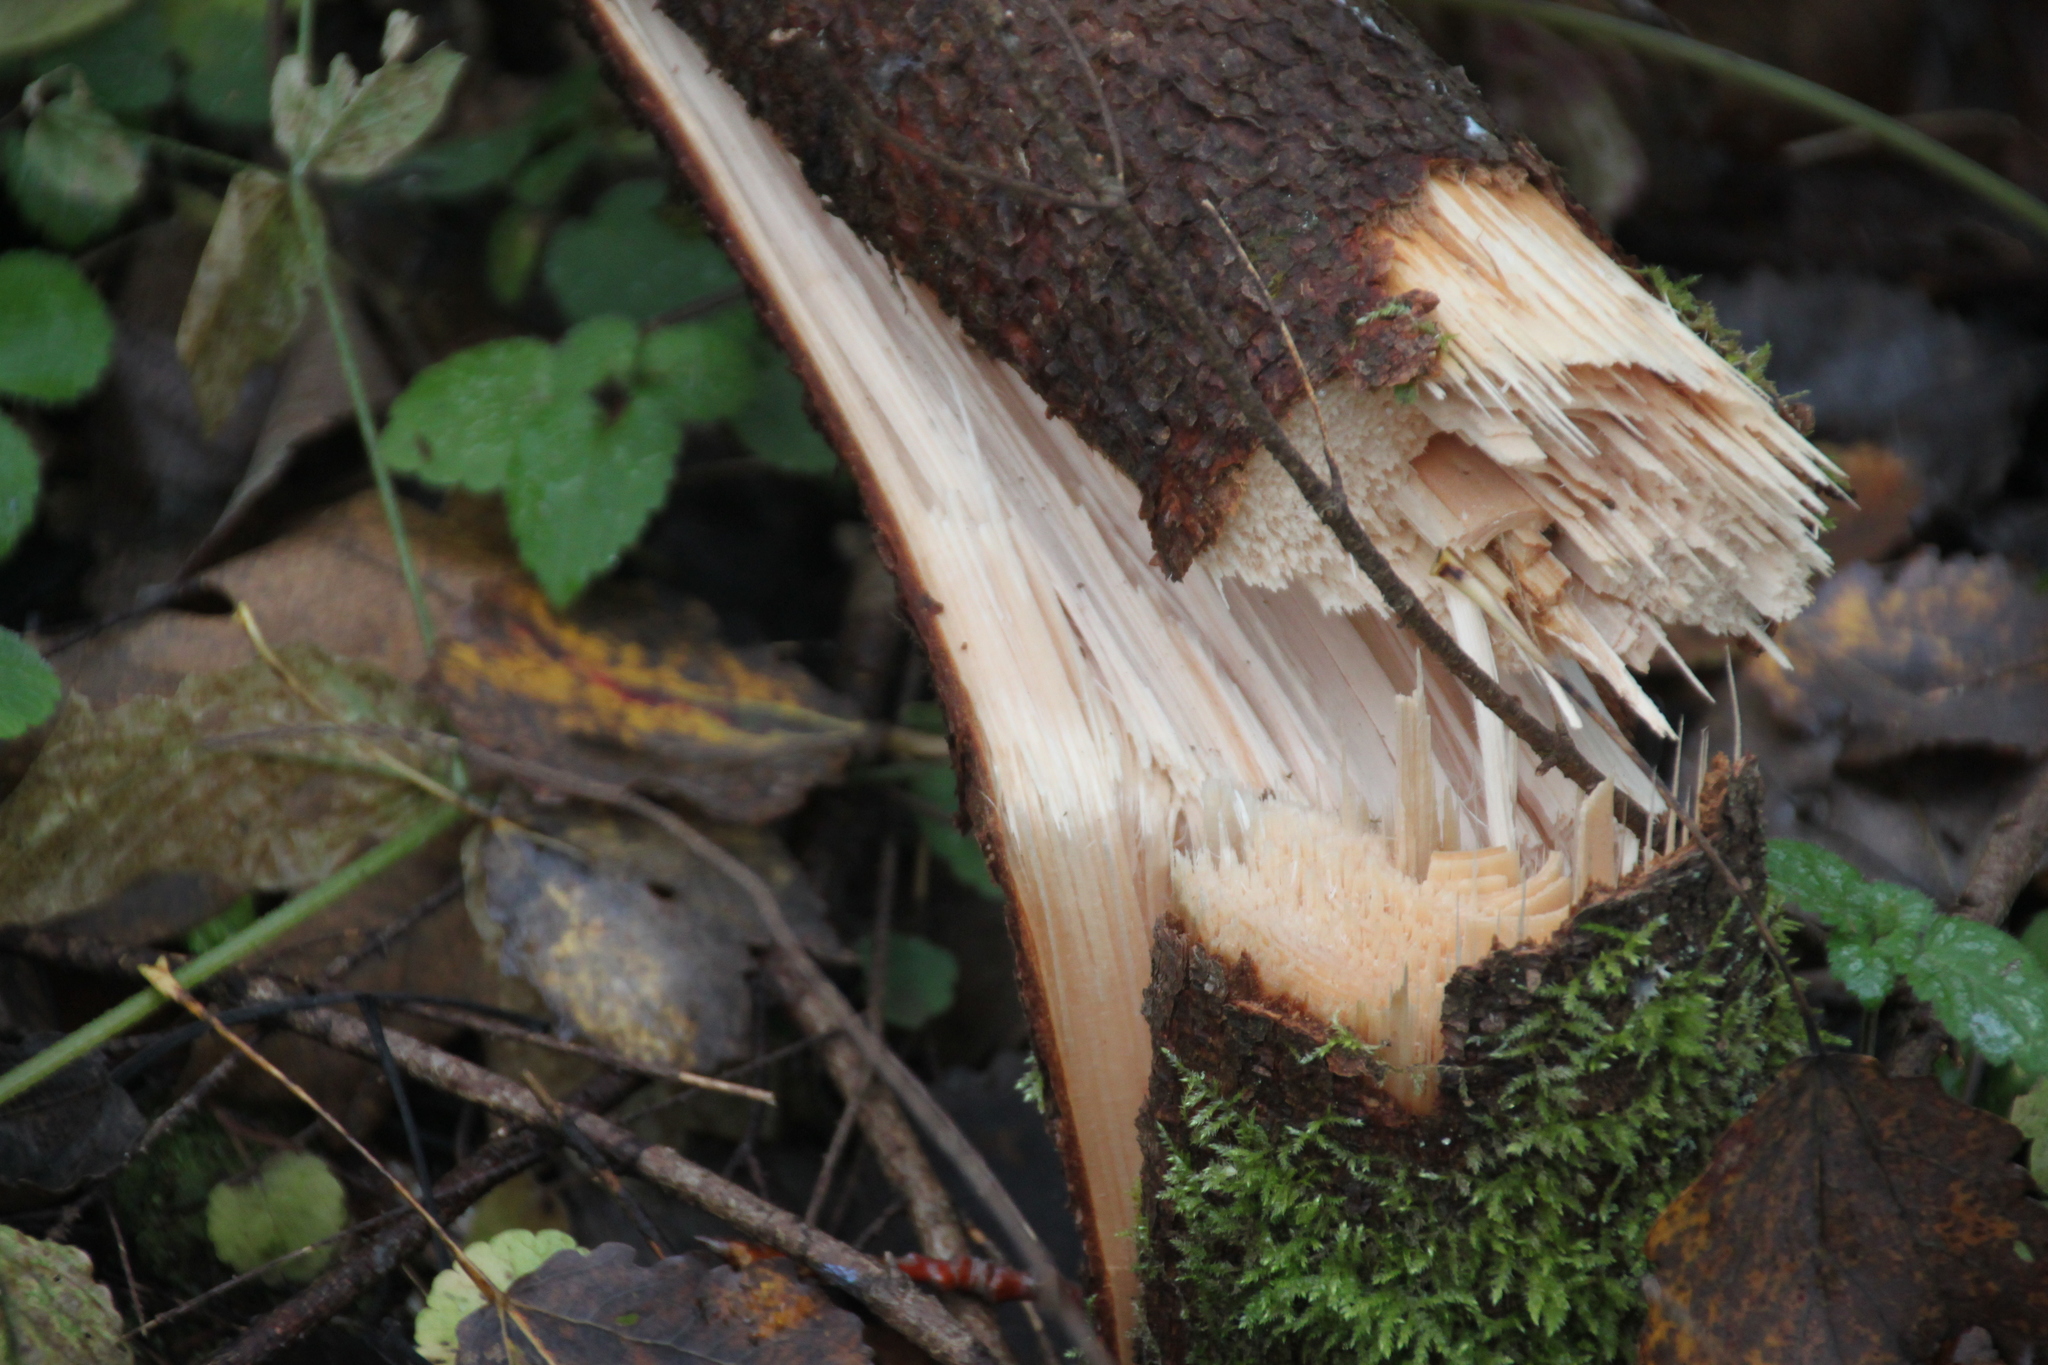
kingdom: Plantae
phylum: Tracheophyta
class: Pinopsida
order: Pinales
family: Pinaceae
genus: Picea
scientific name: Picea abies
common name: Norway spruce
